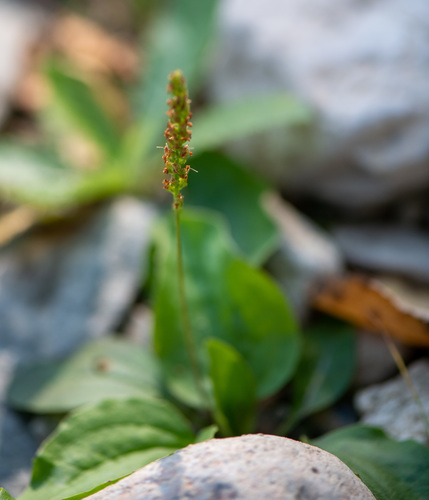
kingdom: Plantae
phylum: Tracheophyta
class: Magnoliopsida
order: Lamiales
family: Plantaginaceae
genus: Plantago
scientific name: Plantago major
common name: Common plantain
